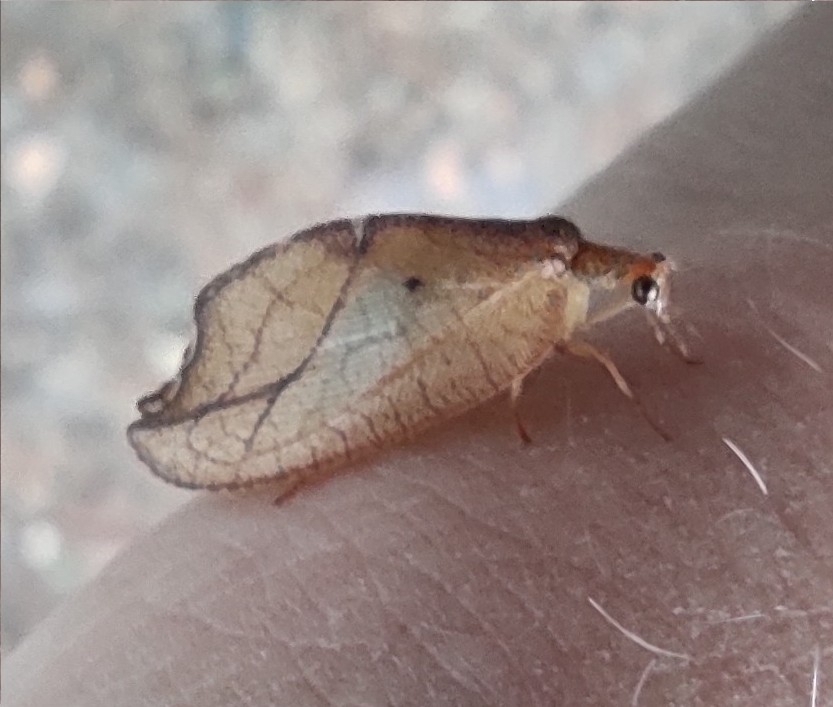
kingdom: Animalia
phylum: Arthropoda
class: Insecta
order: Neuroptera
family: Hemerobiidae
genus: Drepanepteryx
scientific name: Drepanepteryx phalaenoides
